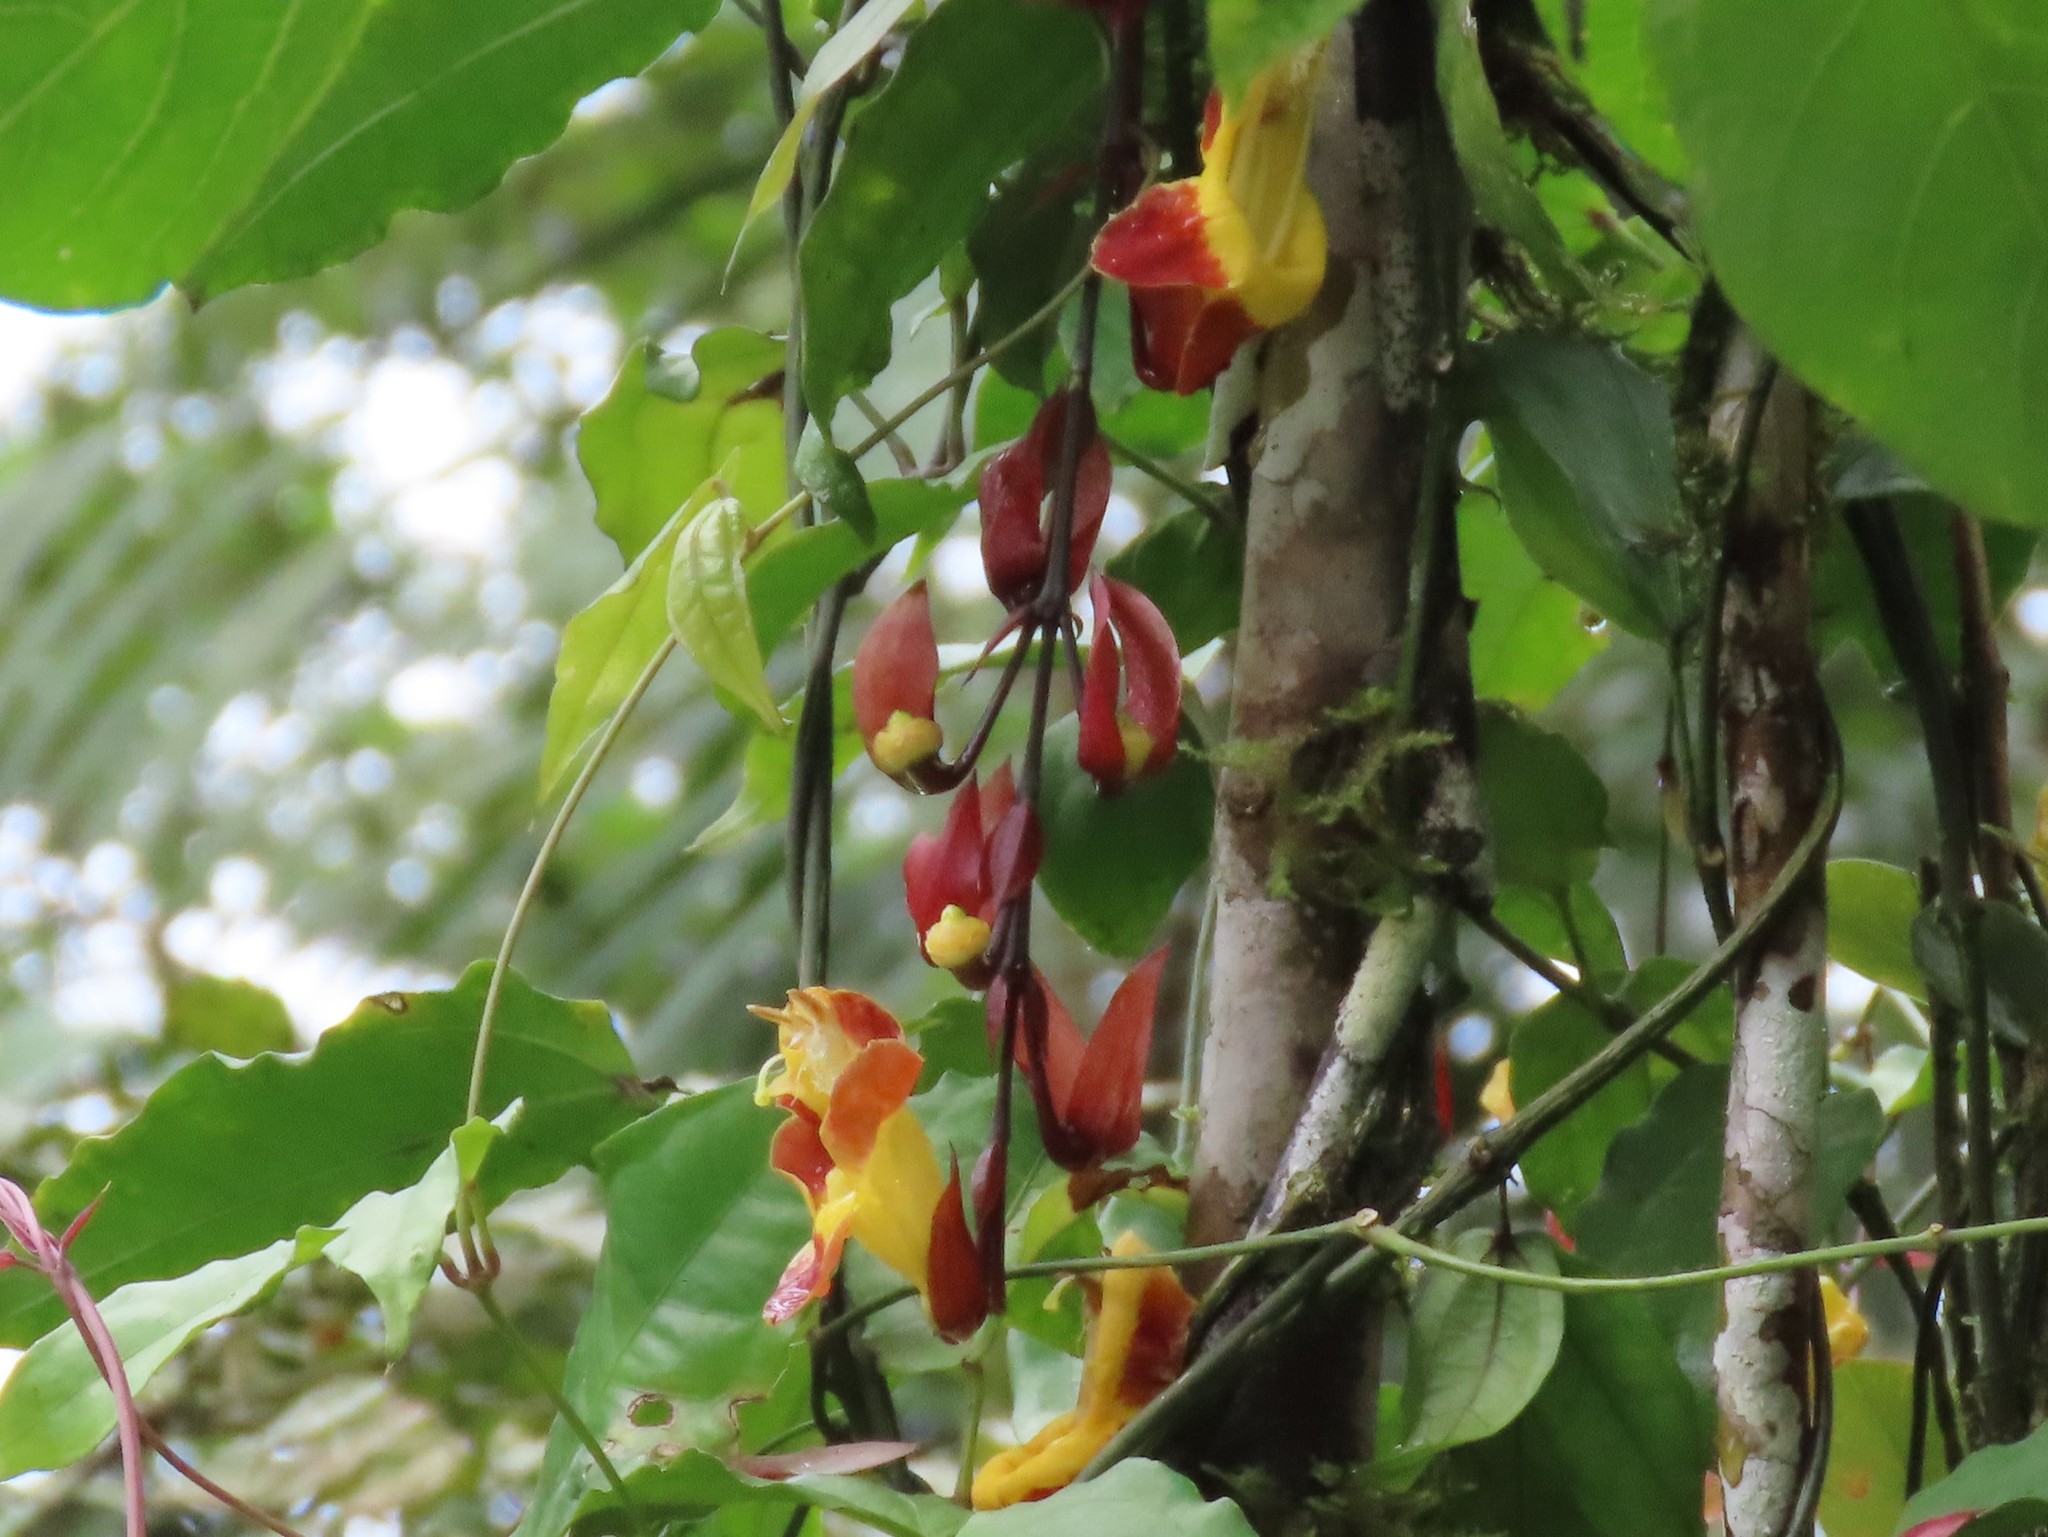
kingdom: Plantae
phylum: Tracheophyta
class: Magnoliopsida
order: Lamiales
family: Acanthaceae
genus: Thunbergia
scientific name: Thunbergia mysorensis
